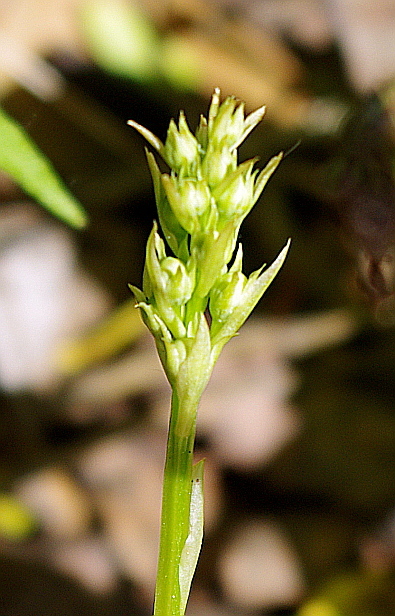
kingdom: Plantae
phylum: Tracheophyta
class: Magnoliopsida
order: Ericales
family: Ericaceae
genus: Pyrola
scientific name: Pyrola rotundifolia
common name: Round-leaved wintergreen
